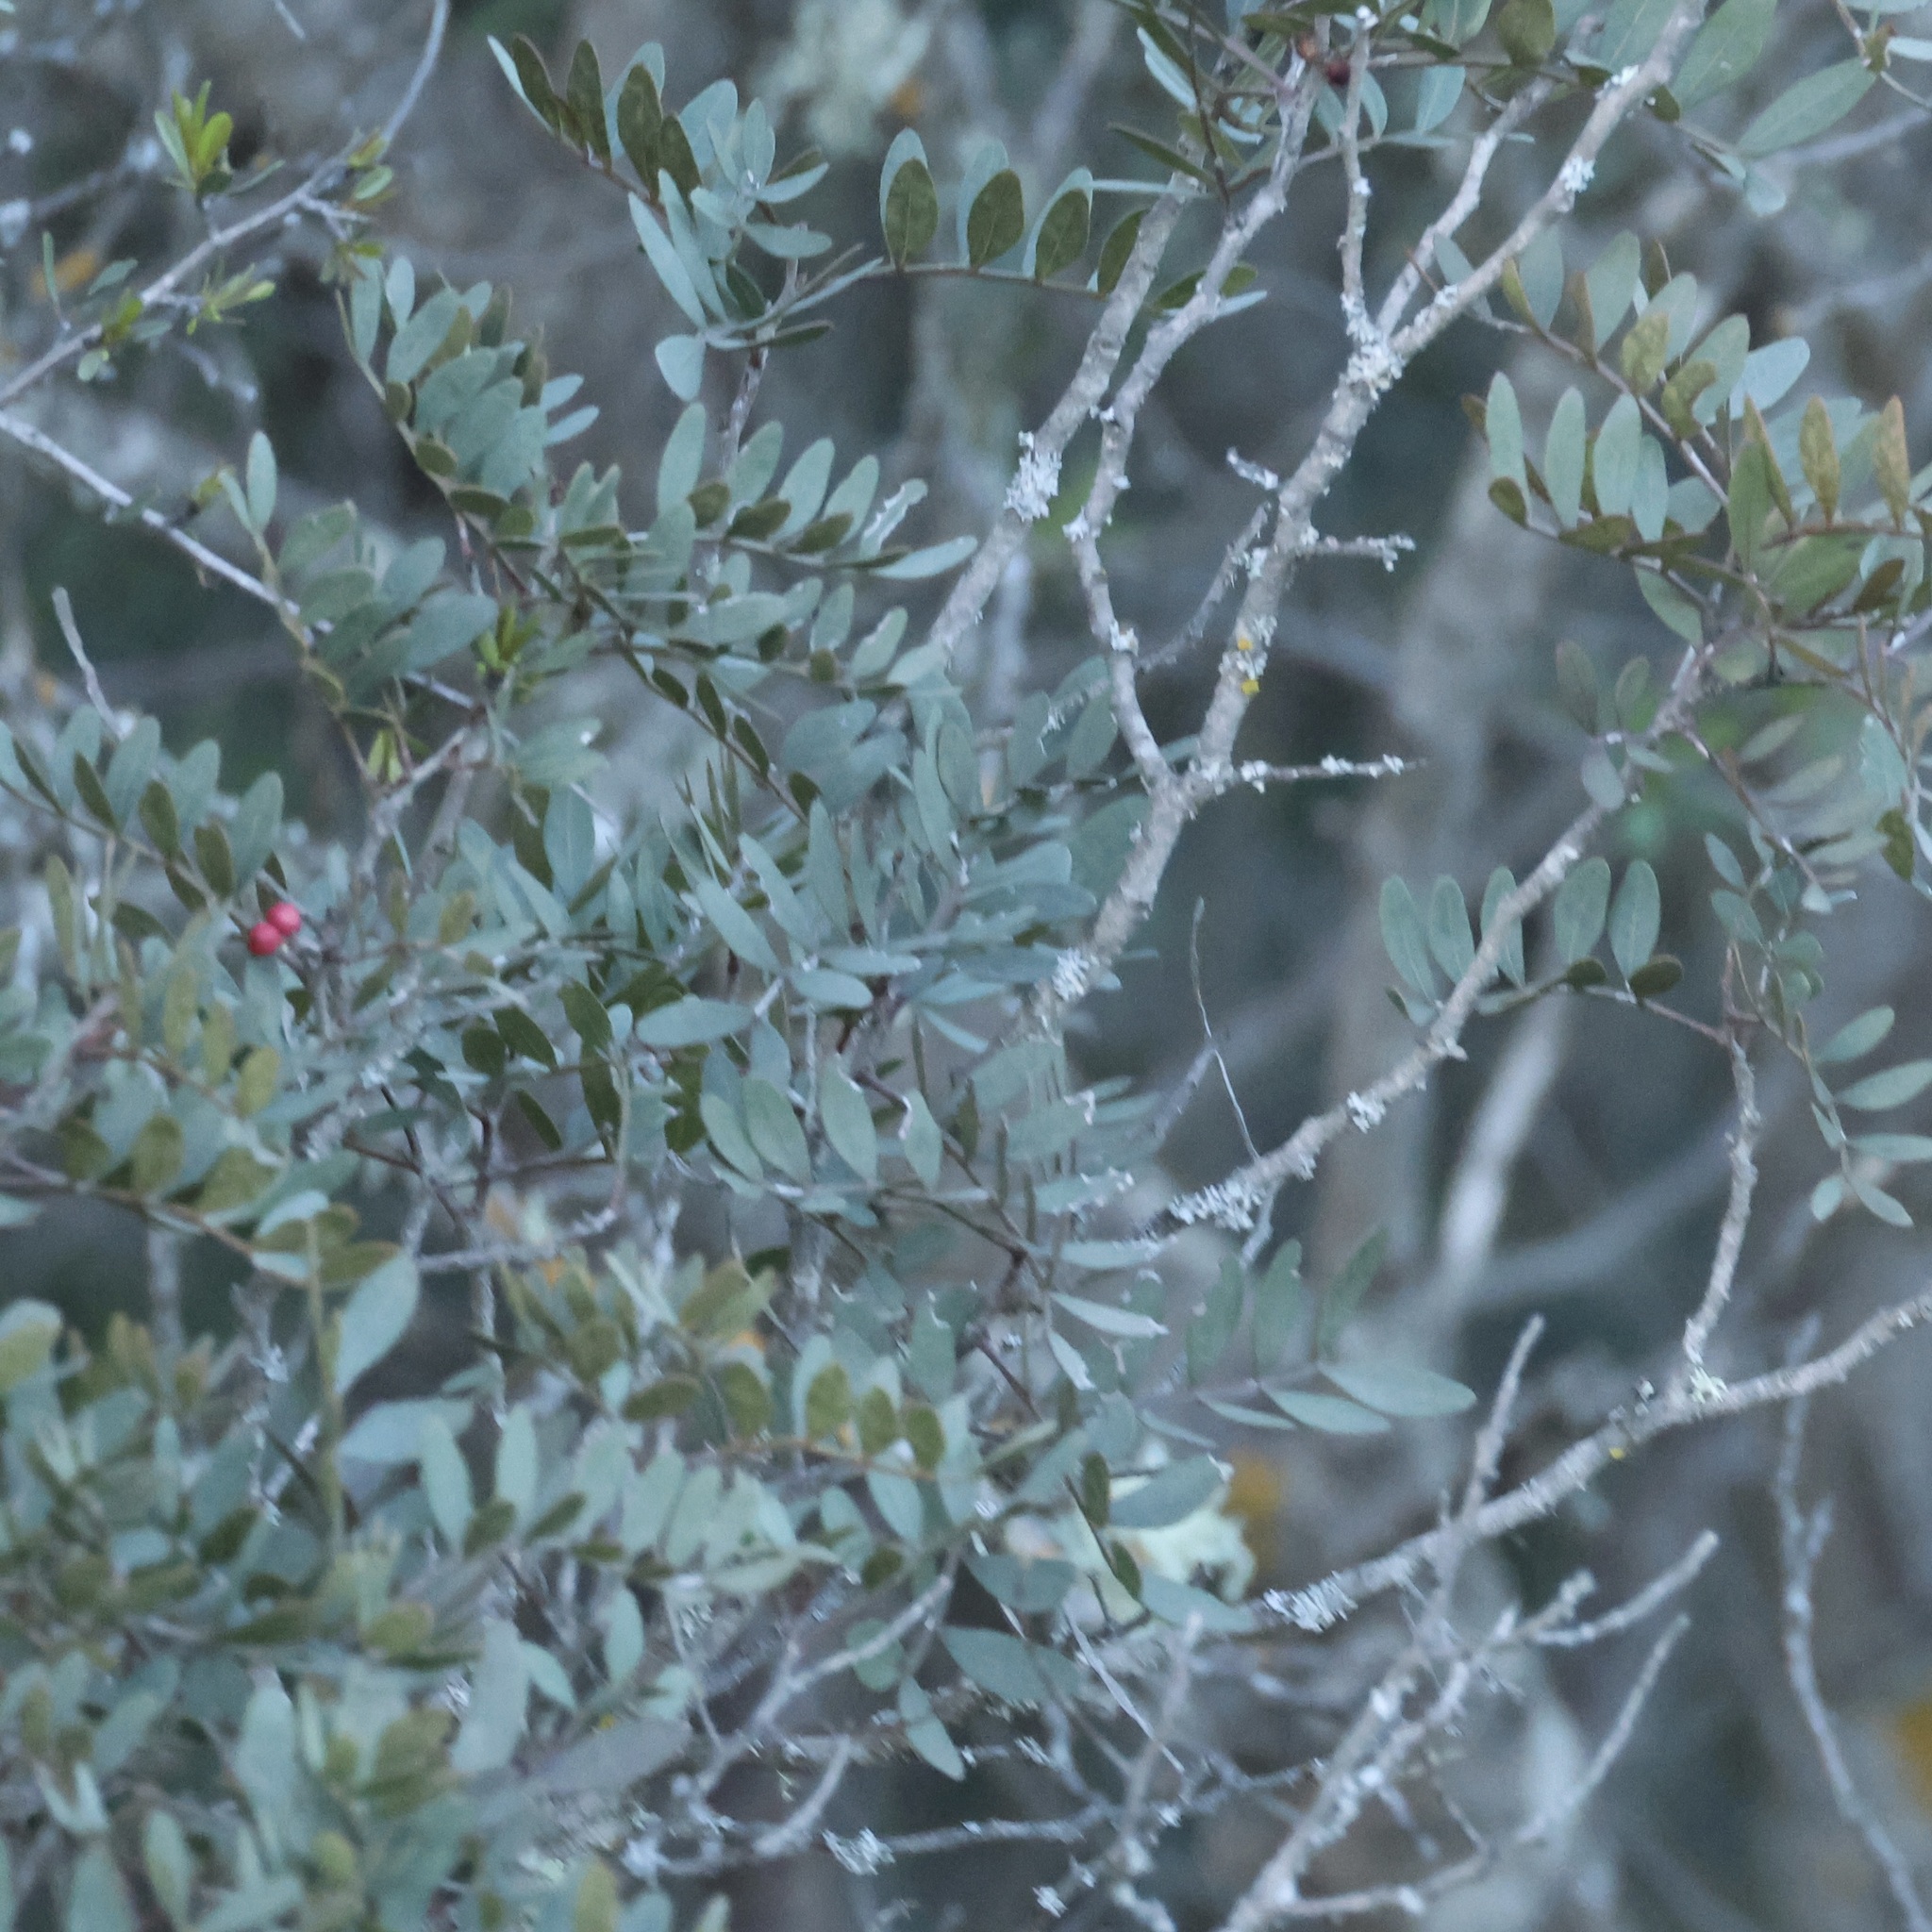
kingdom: Plantae
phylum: Tracheophyta
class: Magnoliopsida
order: Sapindales
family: Anacardiaceae
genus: Pistacia
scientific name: Pistacia lentiscus
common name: Lentisk
